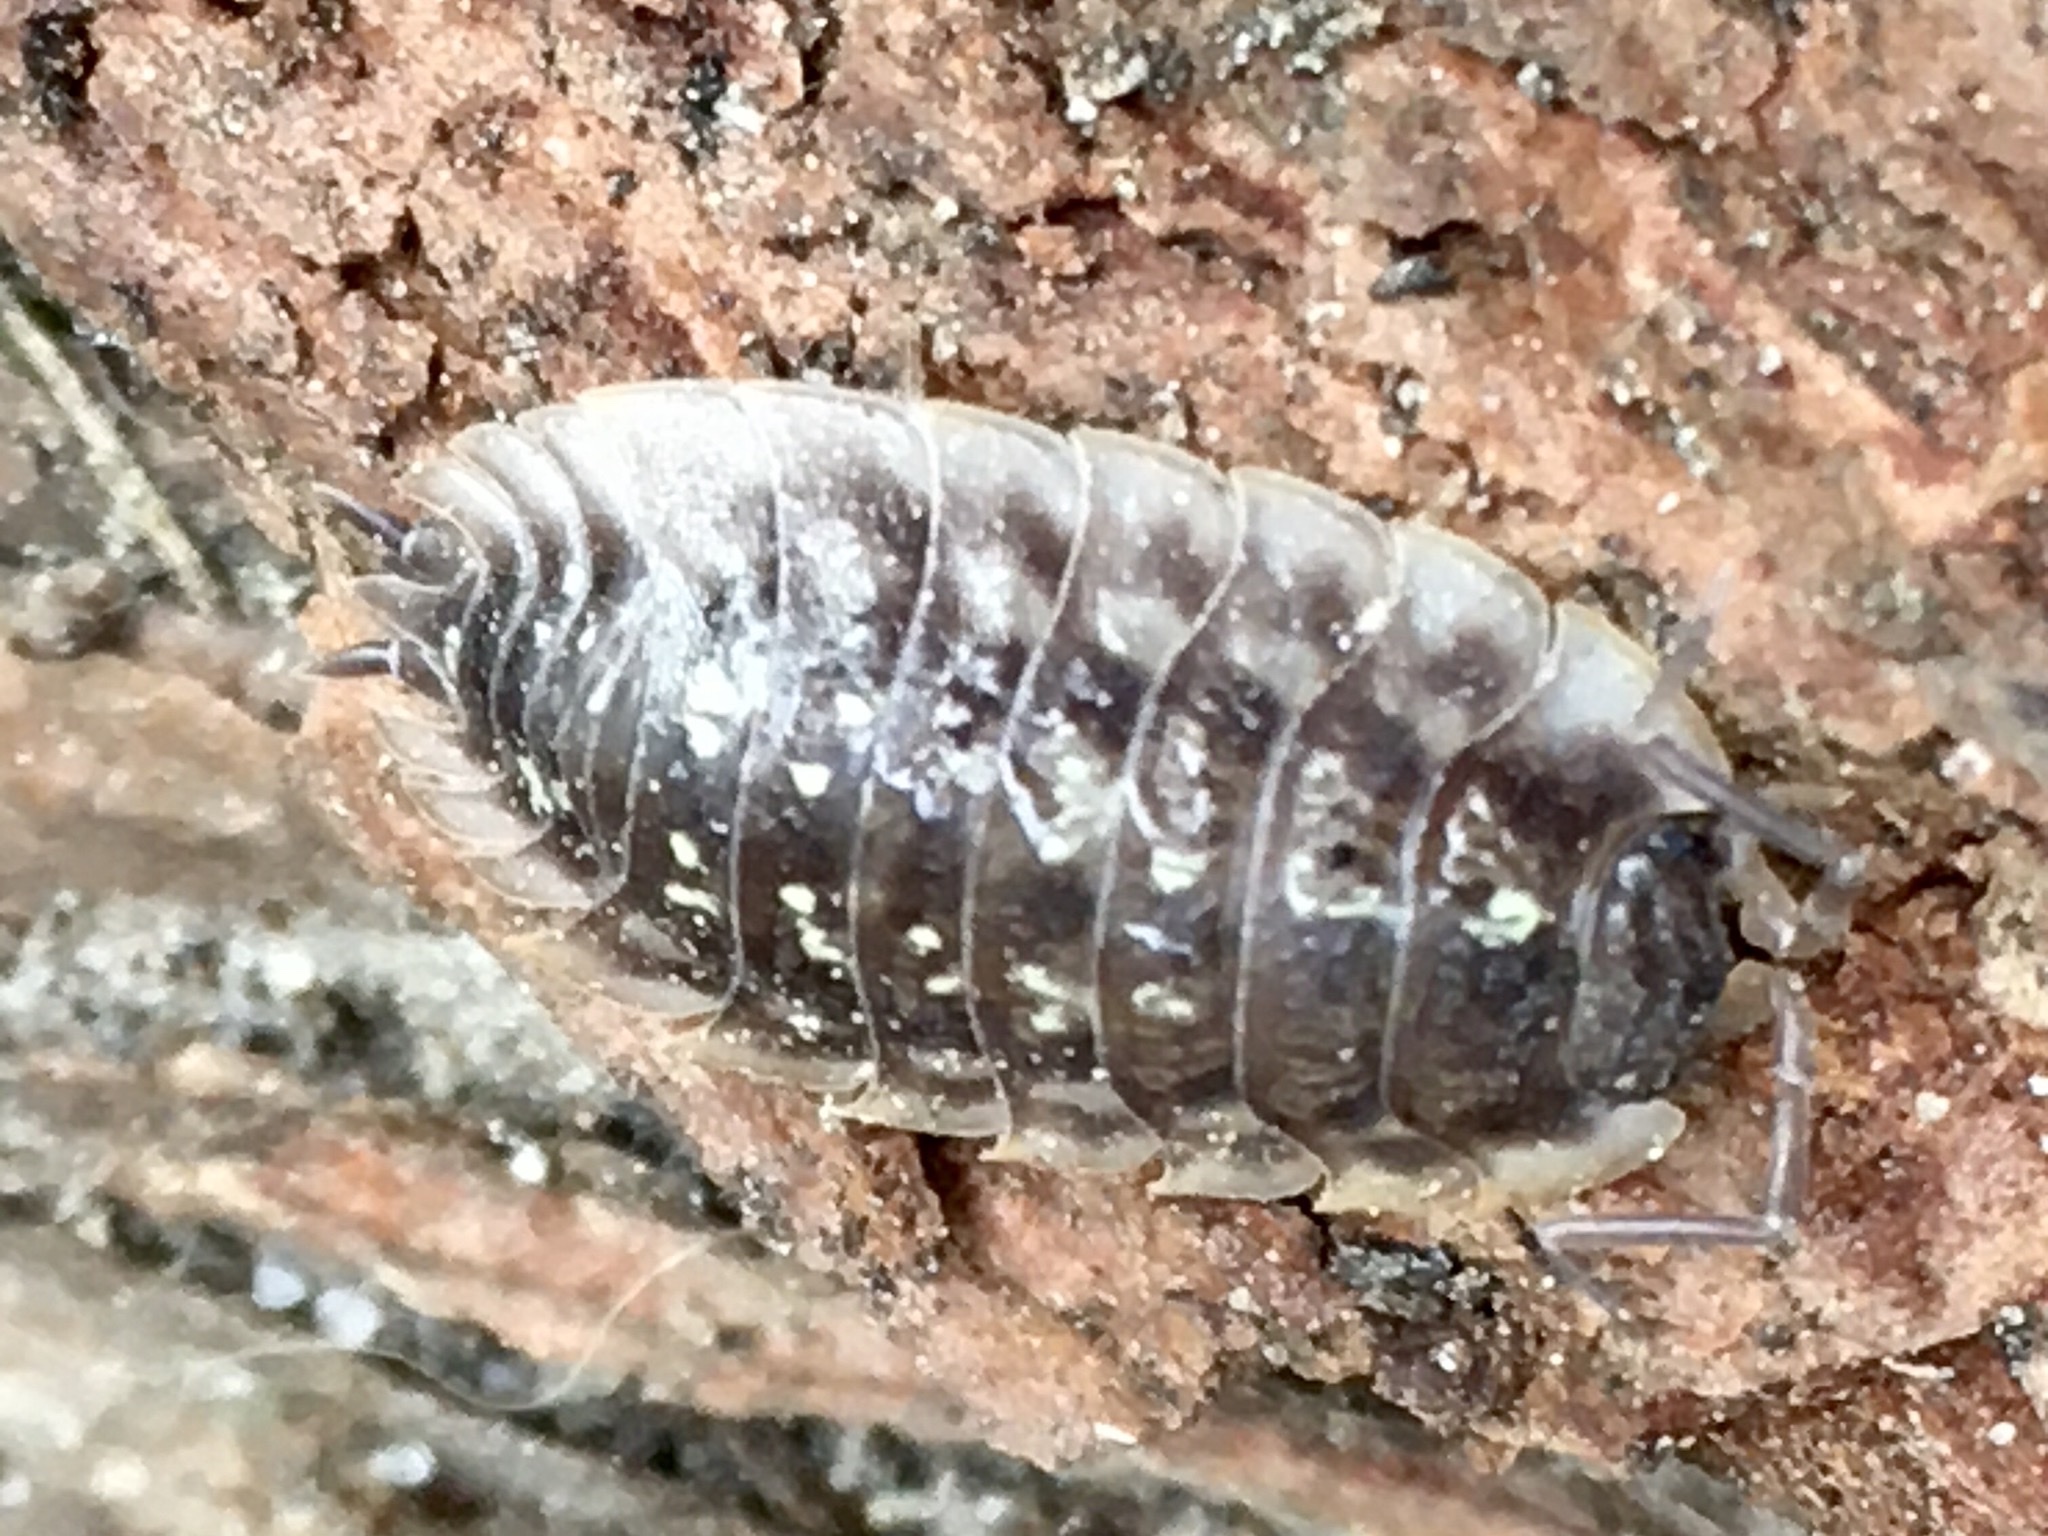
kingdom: Animalia
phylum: Arthropoda
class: Malacostraca
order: Isopoda
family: Oniscidae
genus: Oniscus
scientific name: Oniscus asellus
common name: Common shiny woodlouse
